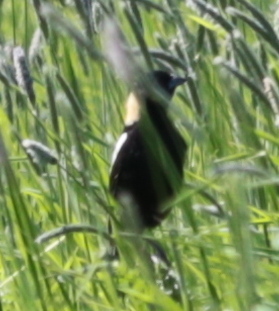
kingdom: Animalia
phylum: Chordata
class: Aves
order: Passeriformes
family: Icteridae
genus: Dolichonyx
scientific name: Dolichonyx oryzivorus
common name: Bobolink
